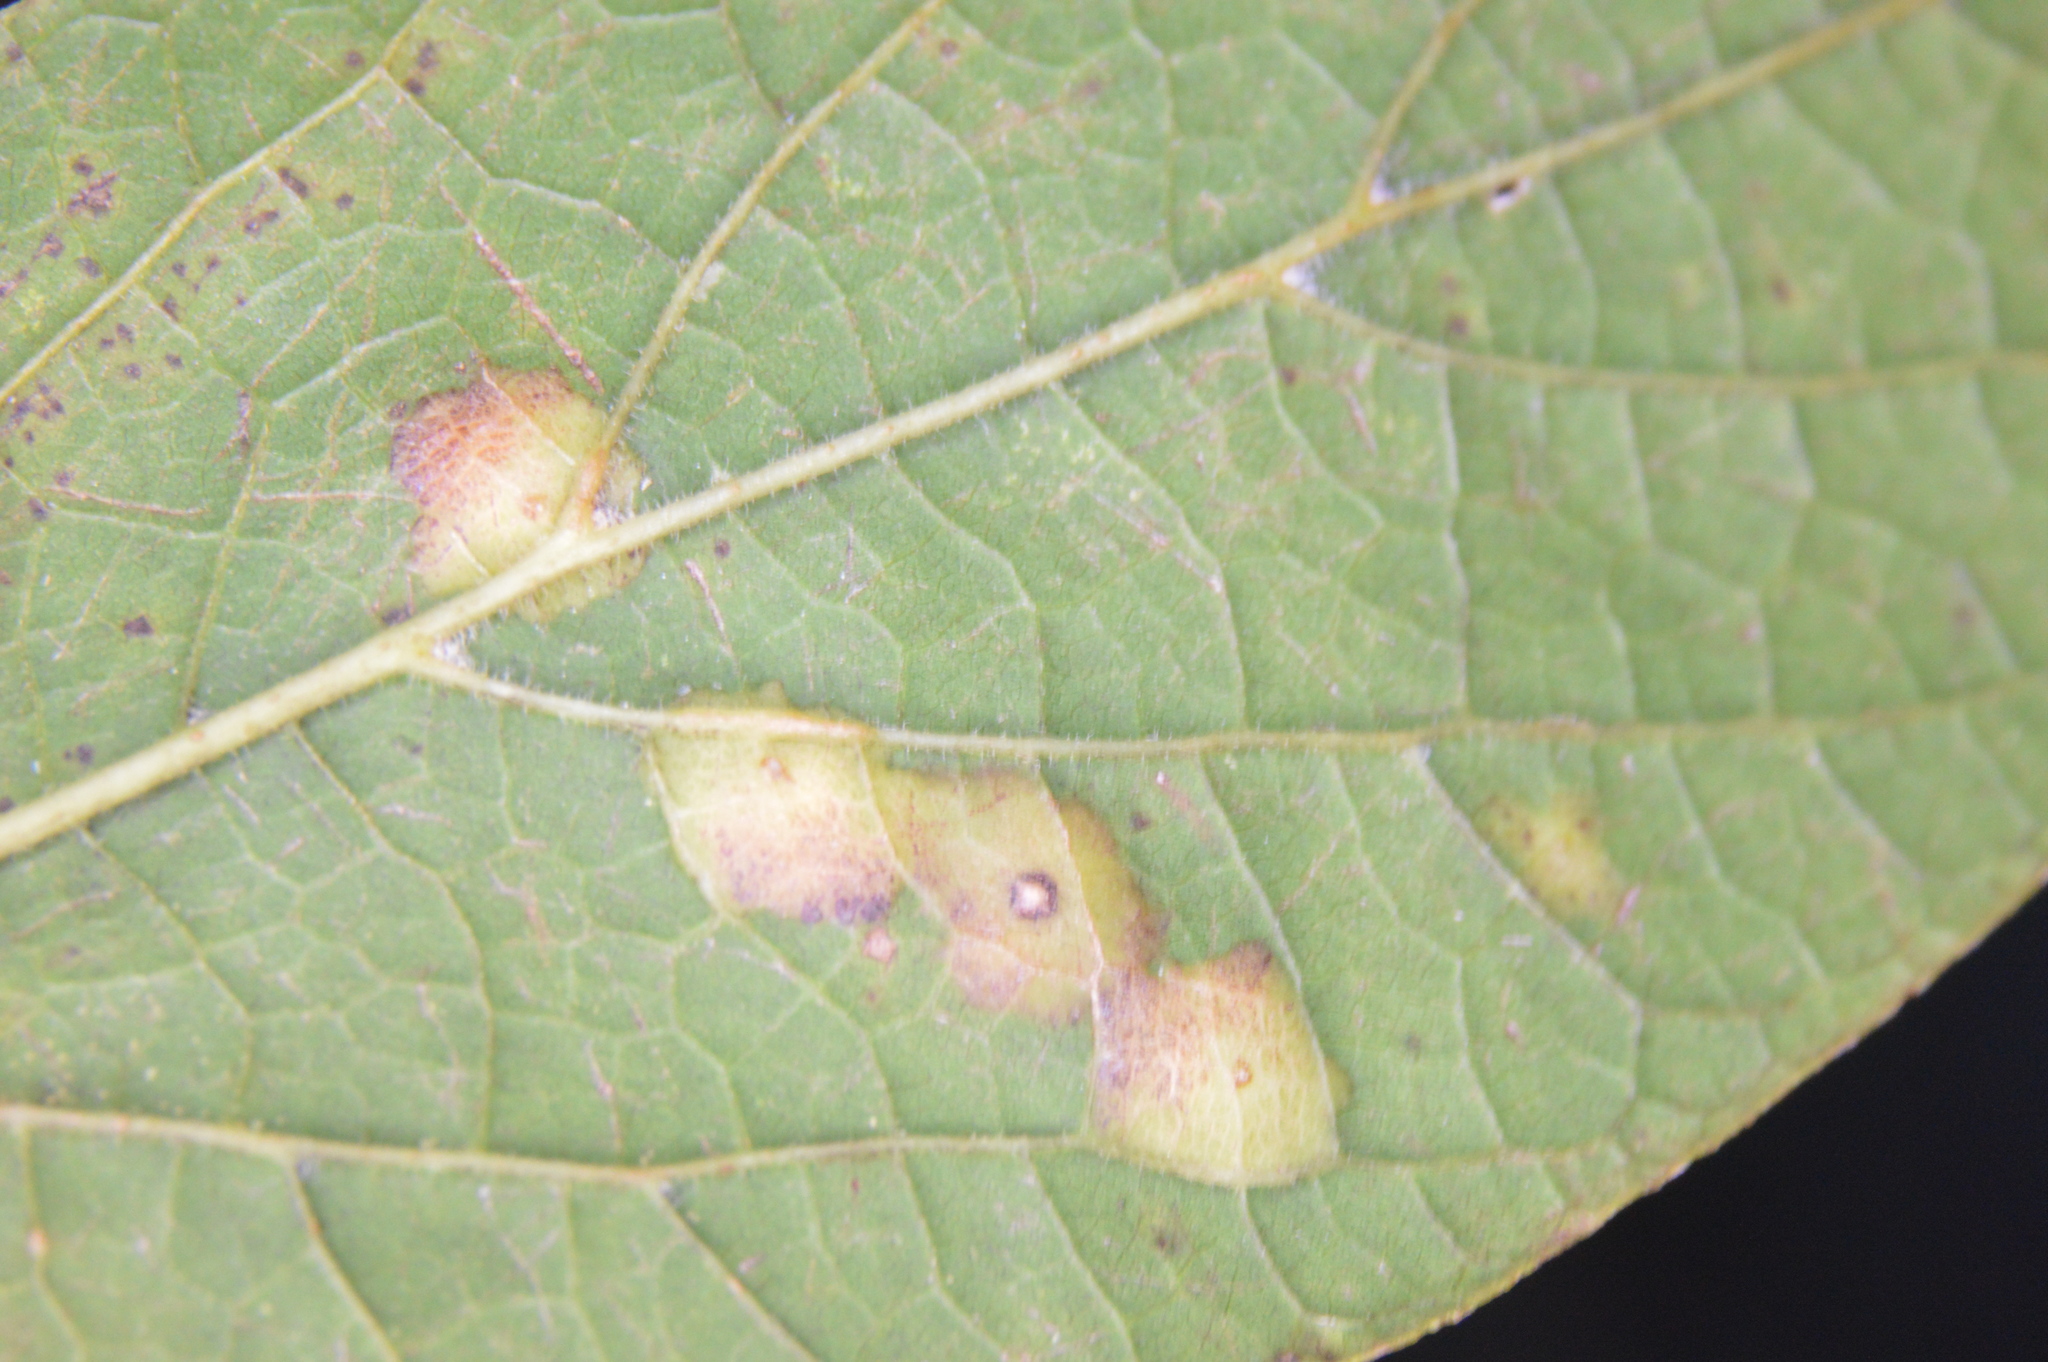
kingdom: Animalia
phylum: Arthropoda
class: Insecta
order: Hemiptera
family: Aphalaridae
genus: Pachypsylla
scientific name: Pachypsylla celtidisvesicula
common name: Hackberry blister gall psyllid
